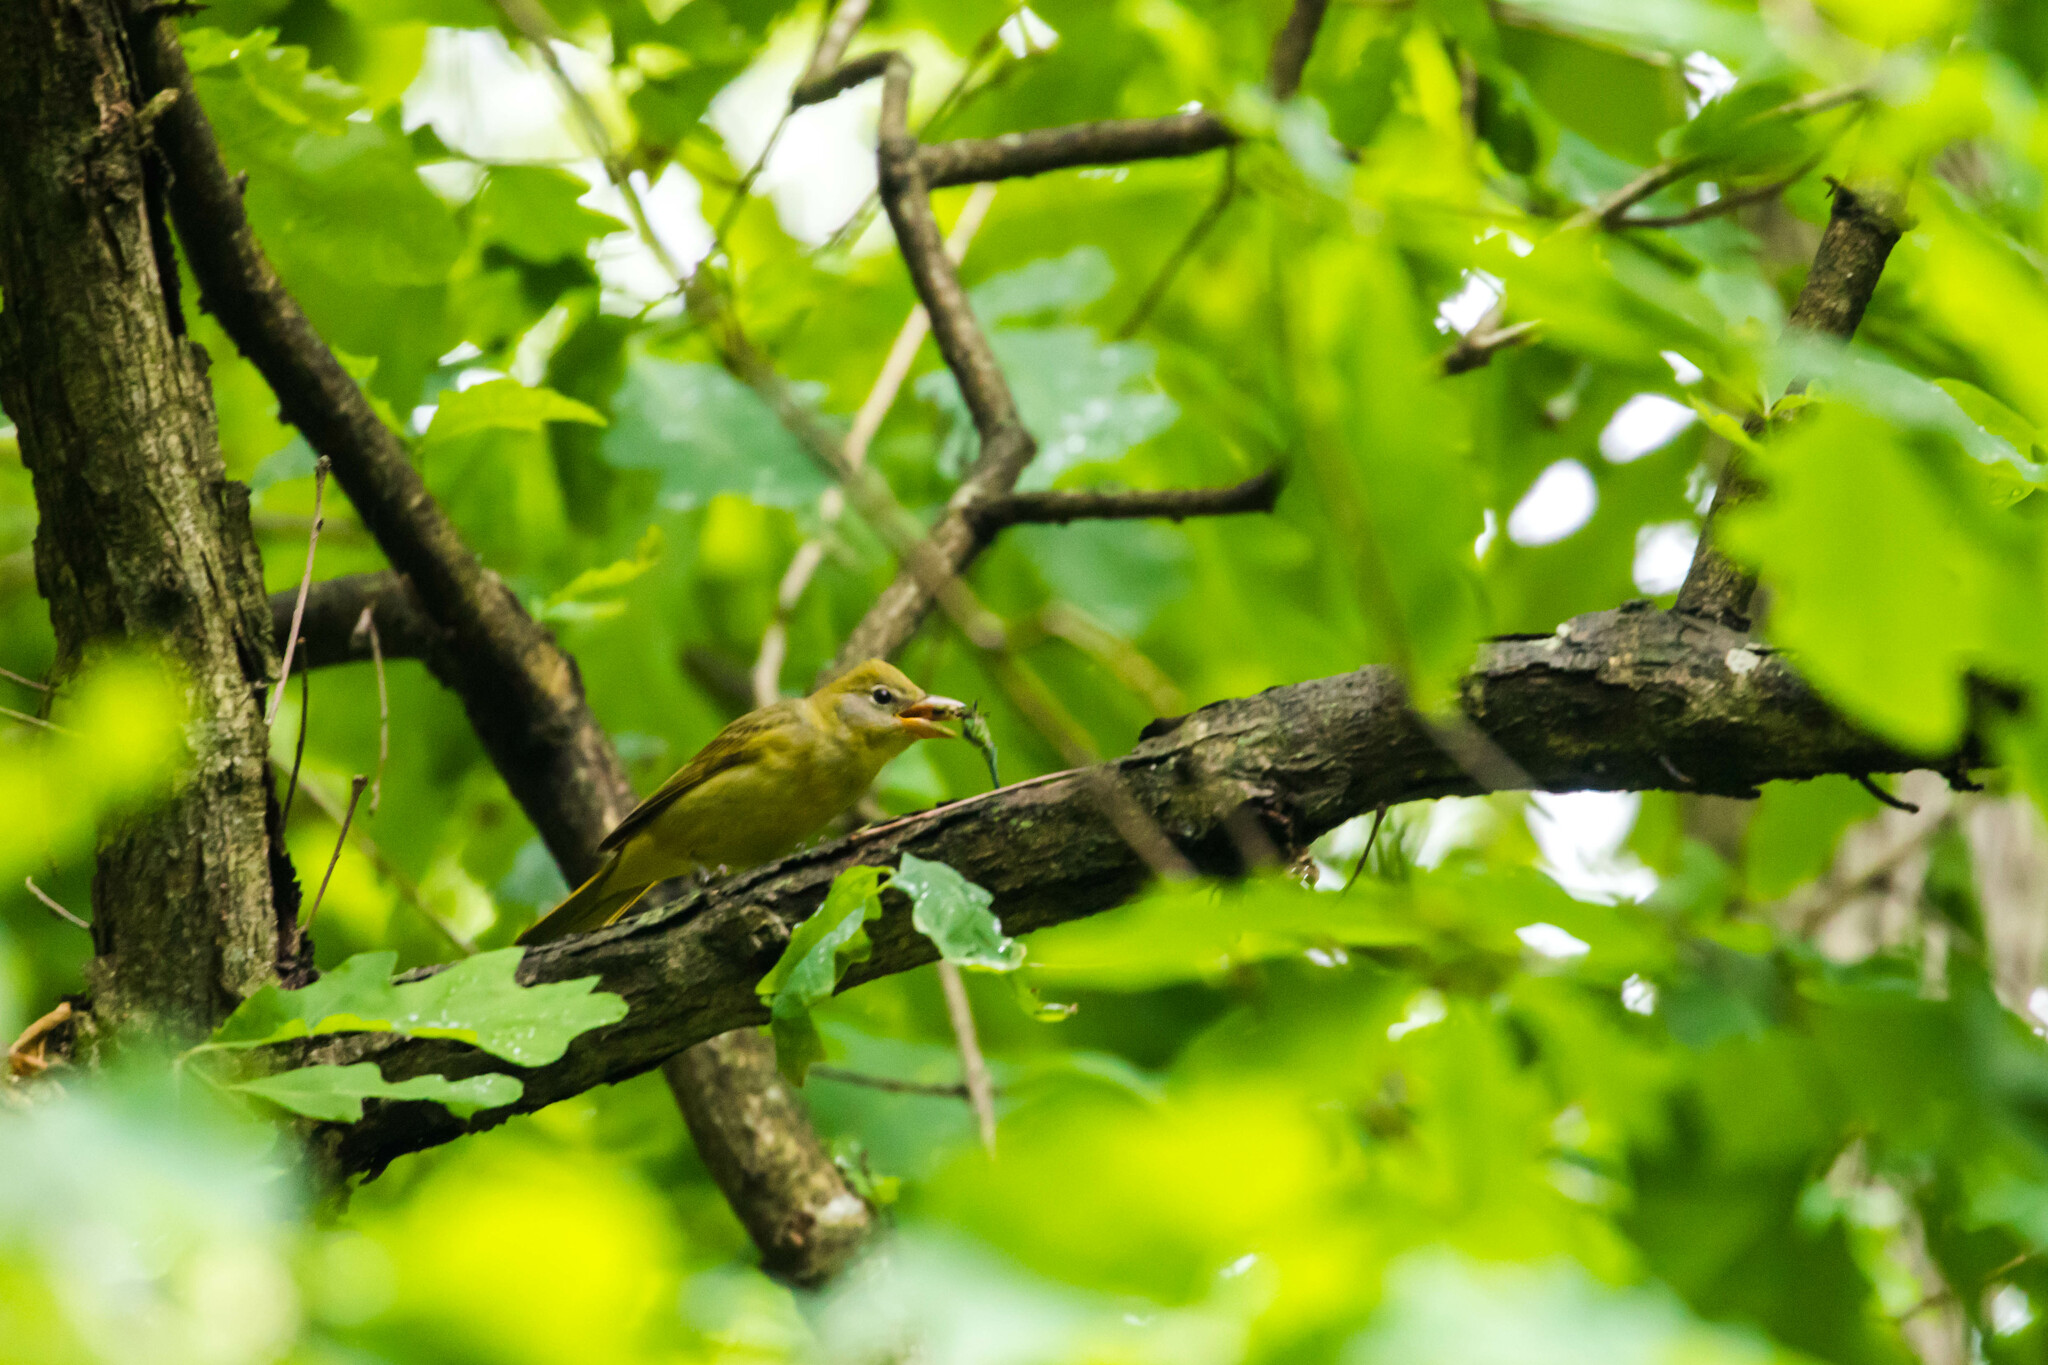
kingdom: Animalia
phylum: Chordata
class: Aves
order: Passeriformes
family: Cardinalidae
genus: Piranga
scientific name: Piranga rubra
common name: Summer tanager
